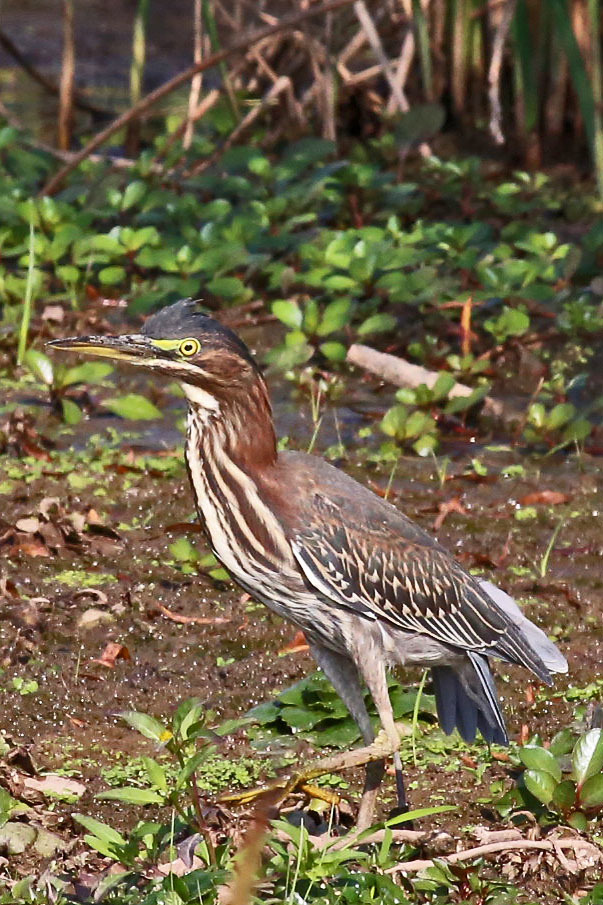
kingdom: Animalia
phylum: Chordata
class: Aves
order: Pelecaniformes
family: Ardeidae
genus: Butorides
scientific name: Butorides virescens
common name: Green heron
